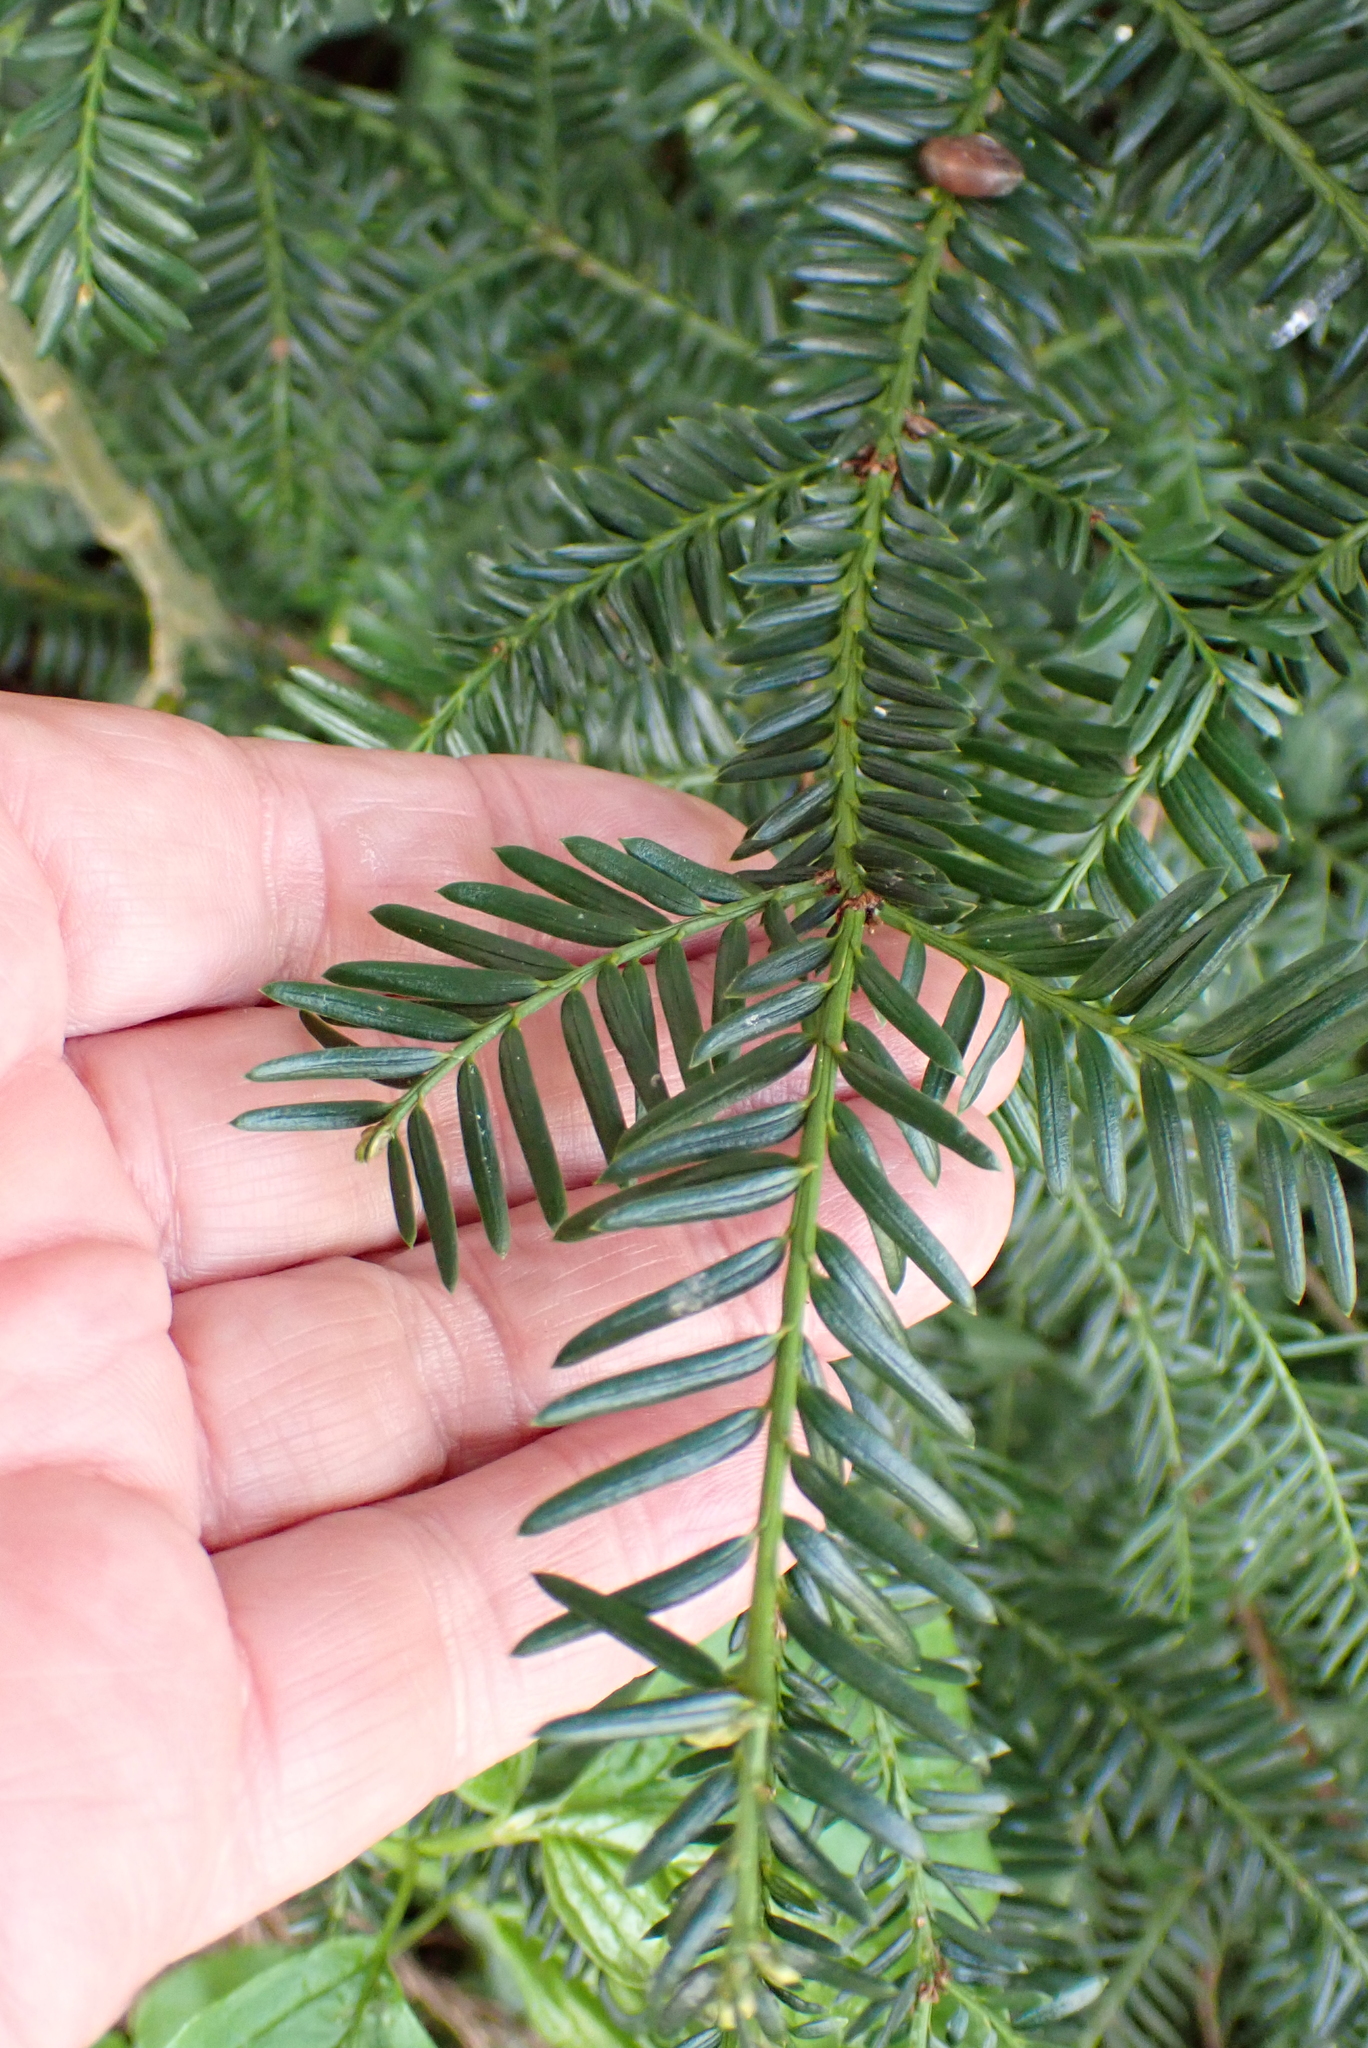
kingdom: Plantae
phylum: Tracheophyta
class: Pinopsida
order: Pinales
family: Taxaceae
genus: Taxus
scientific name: Taxus baccata
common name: Yew
